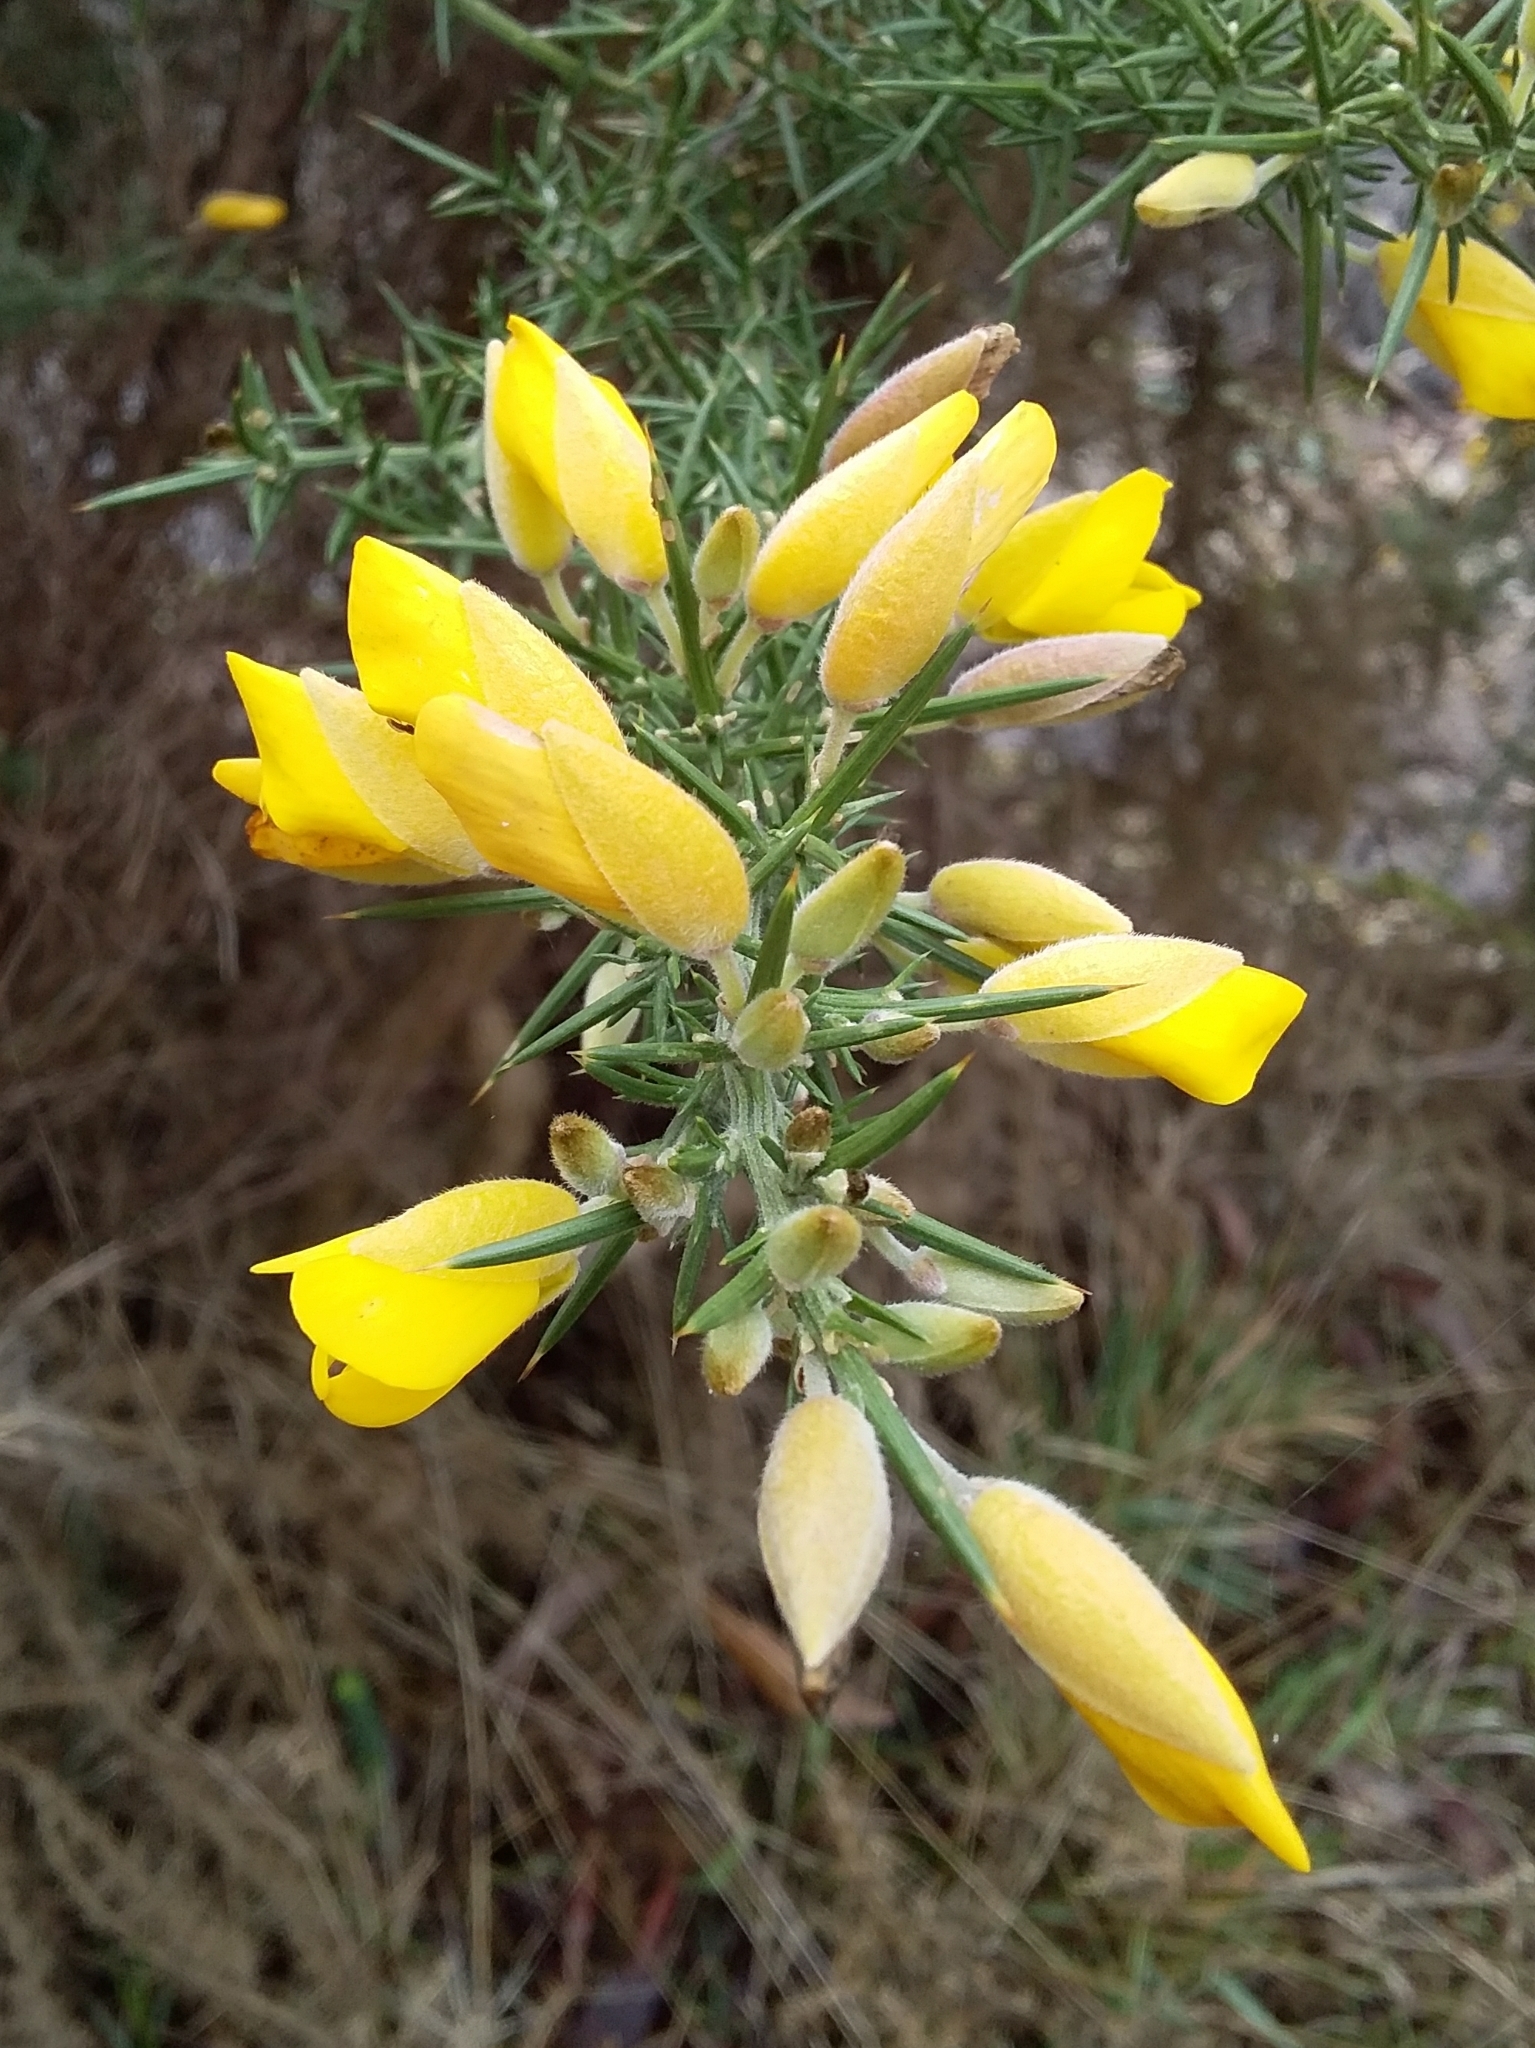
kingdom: Plantae
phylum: Tracheophyta
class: Magnoliopsida
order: Fabales
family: Fabaceae
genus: Ulex
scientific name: Ulex europaeus
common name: Common gorse
